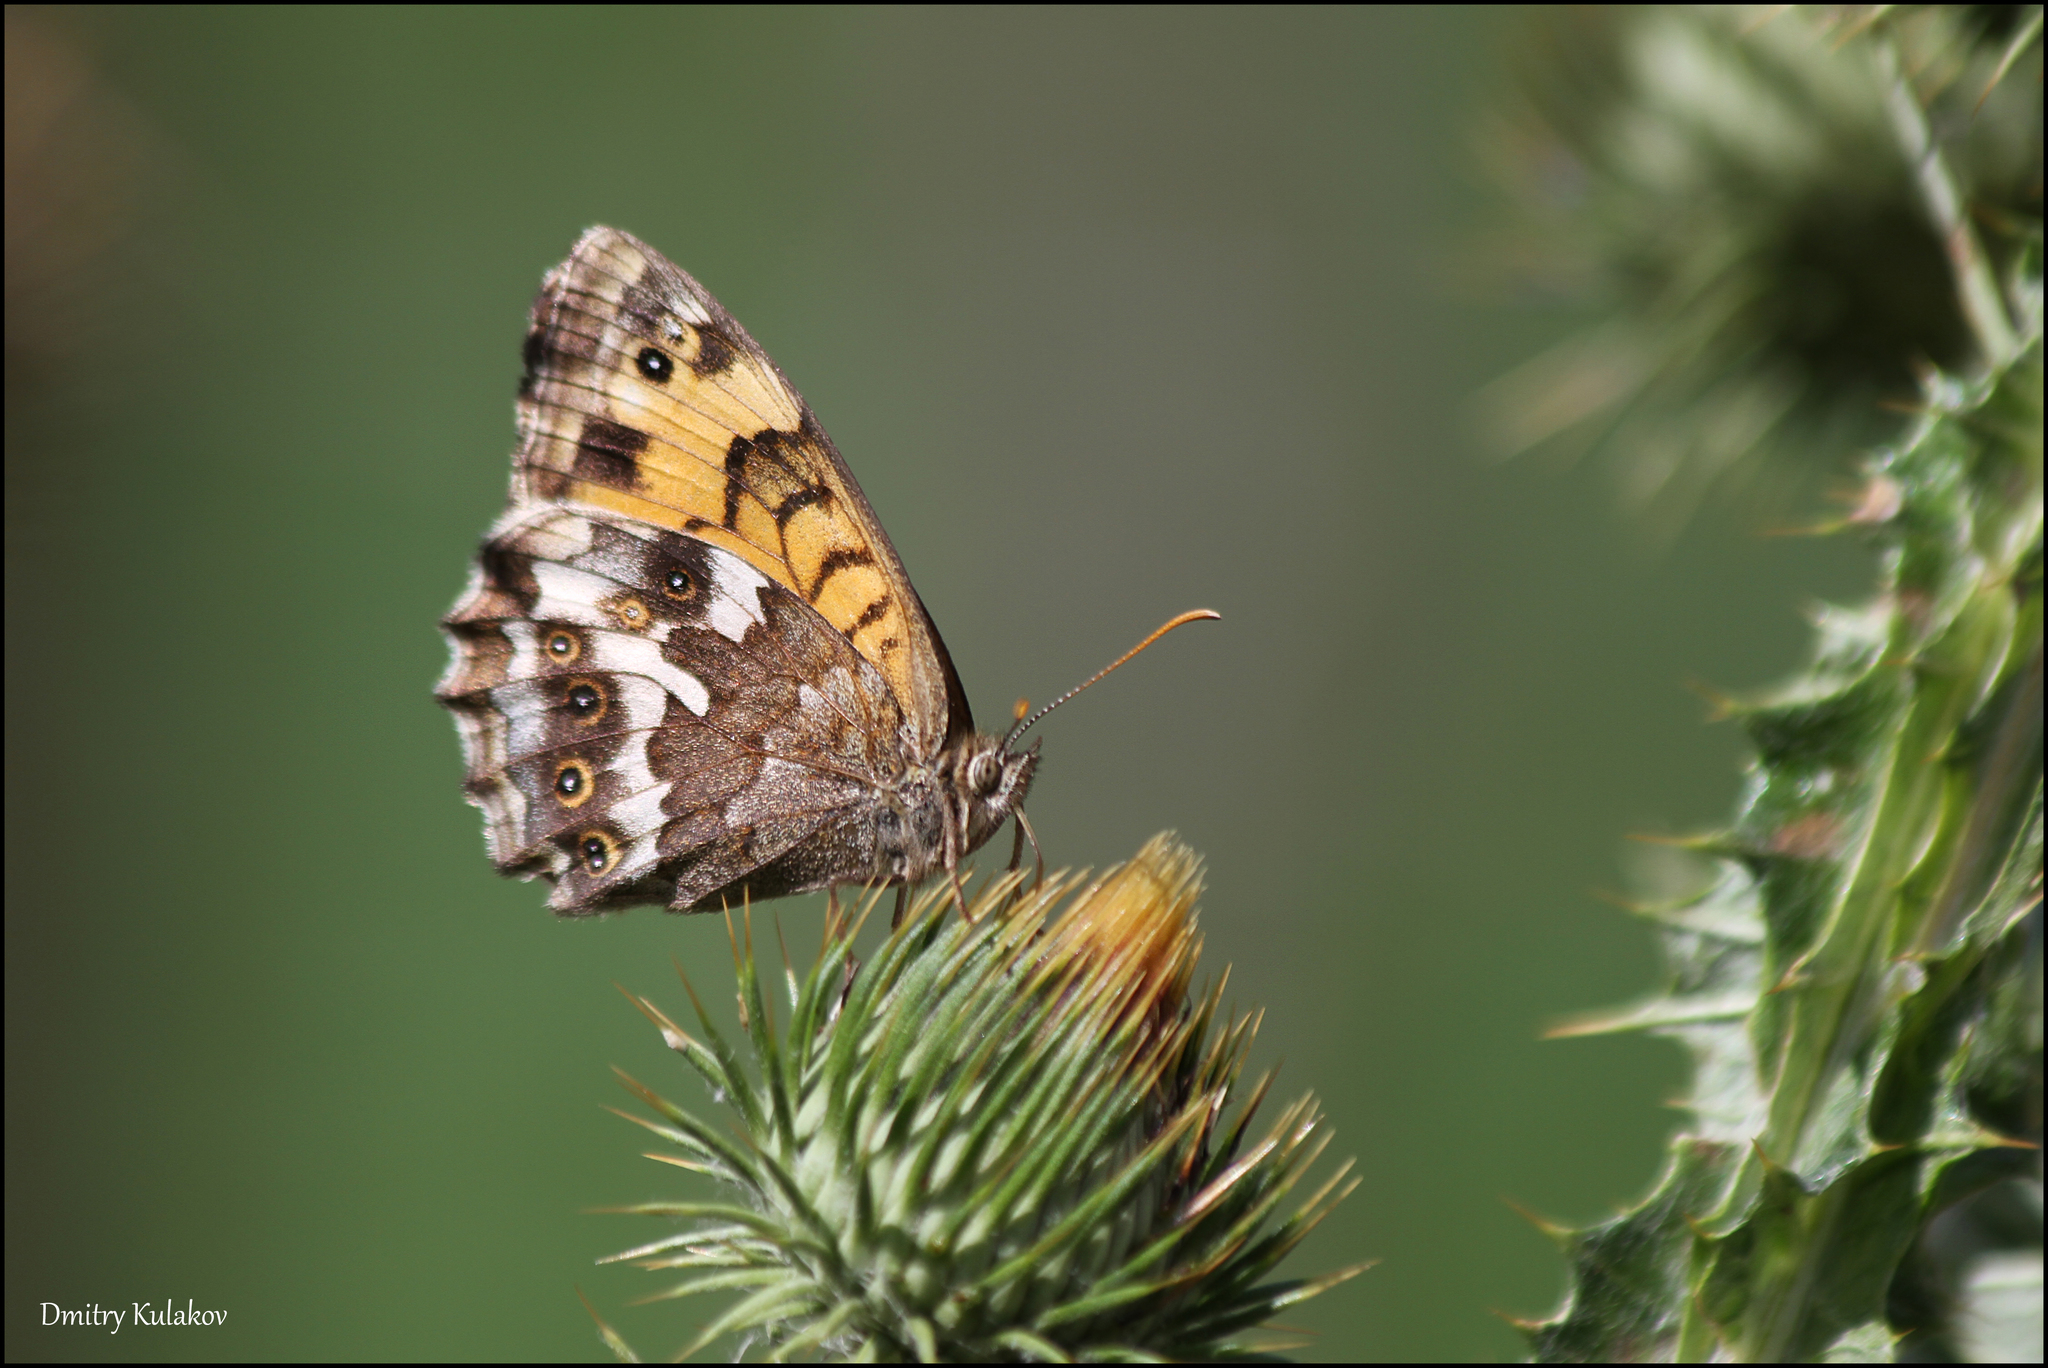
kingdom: Animalia
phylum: Arthropoda
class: Insecta
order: Lepidoptera
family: Nymphalidae
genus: Kirinia
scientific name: Kirinia eversmanni
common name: Yellow wall butterfly
